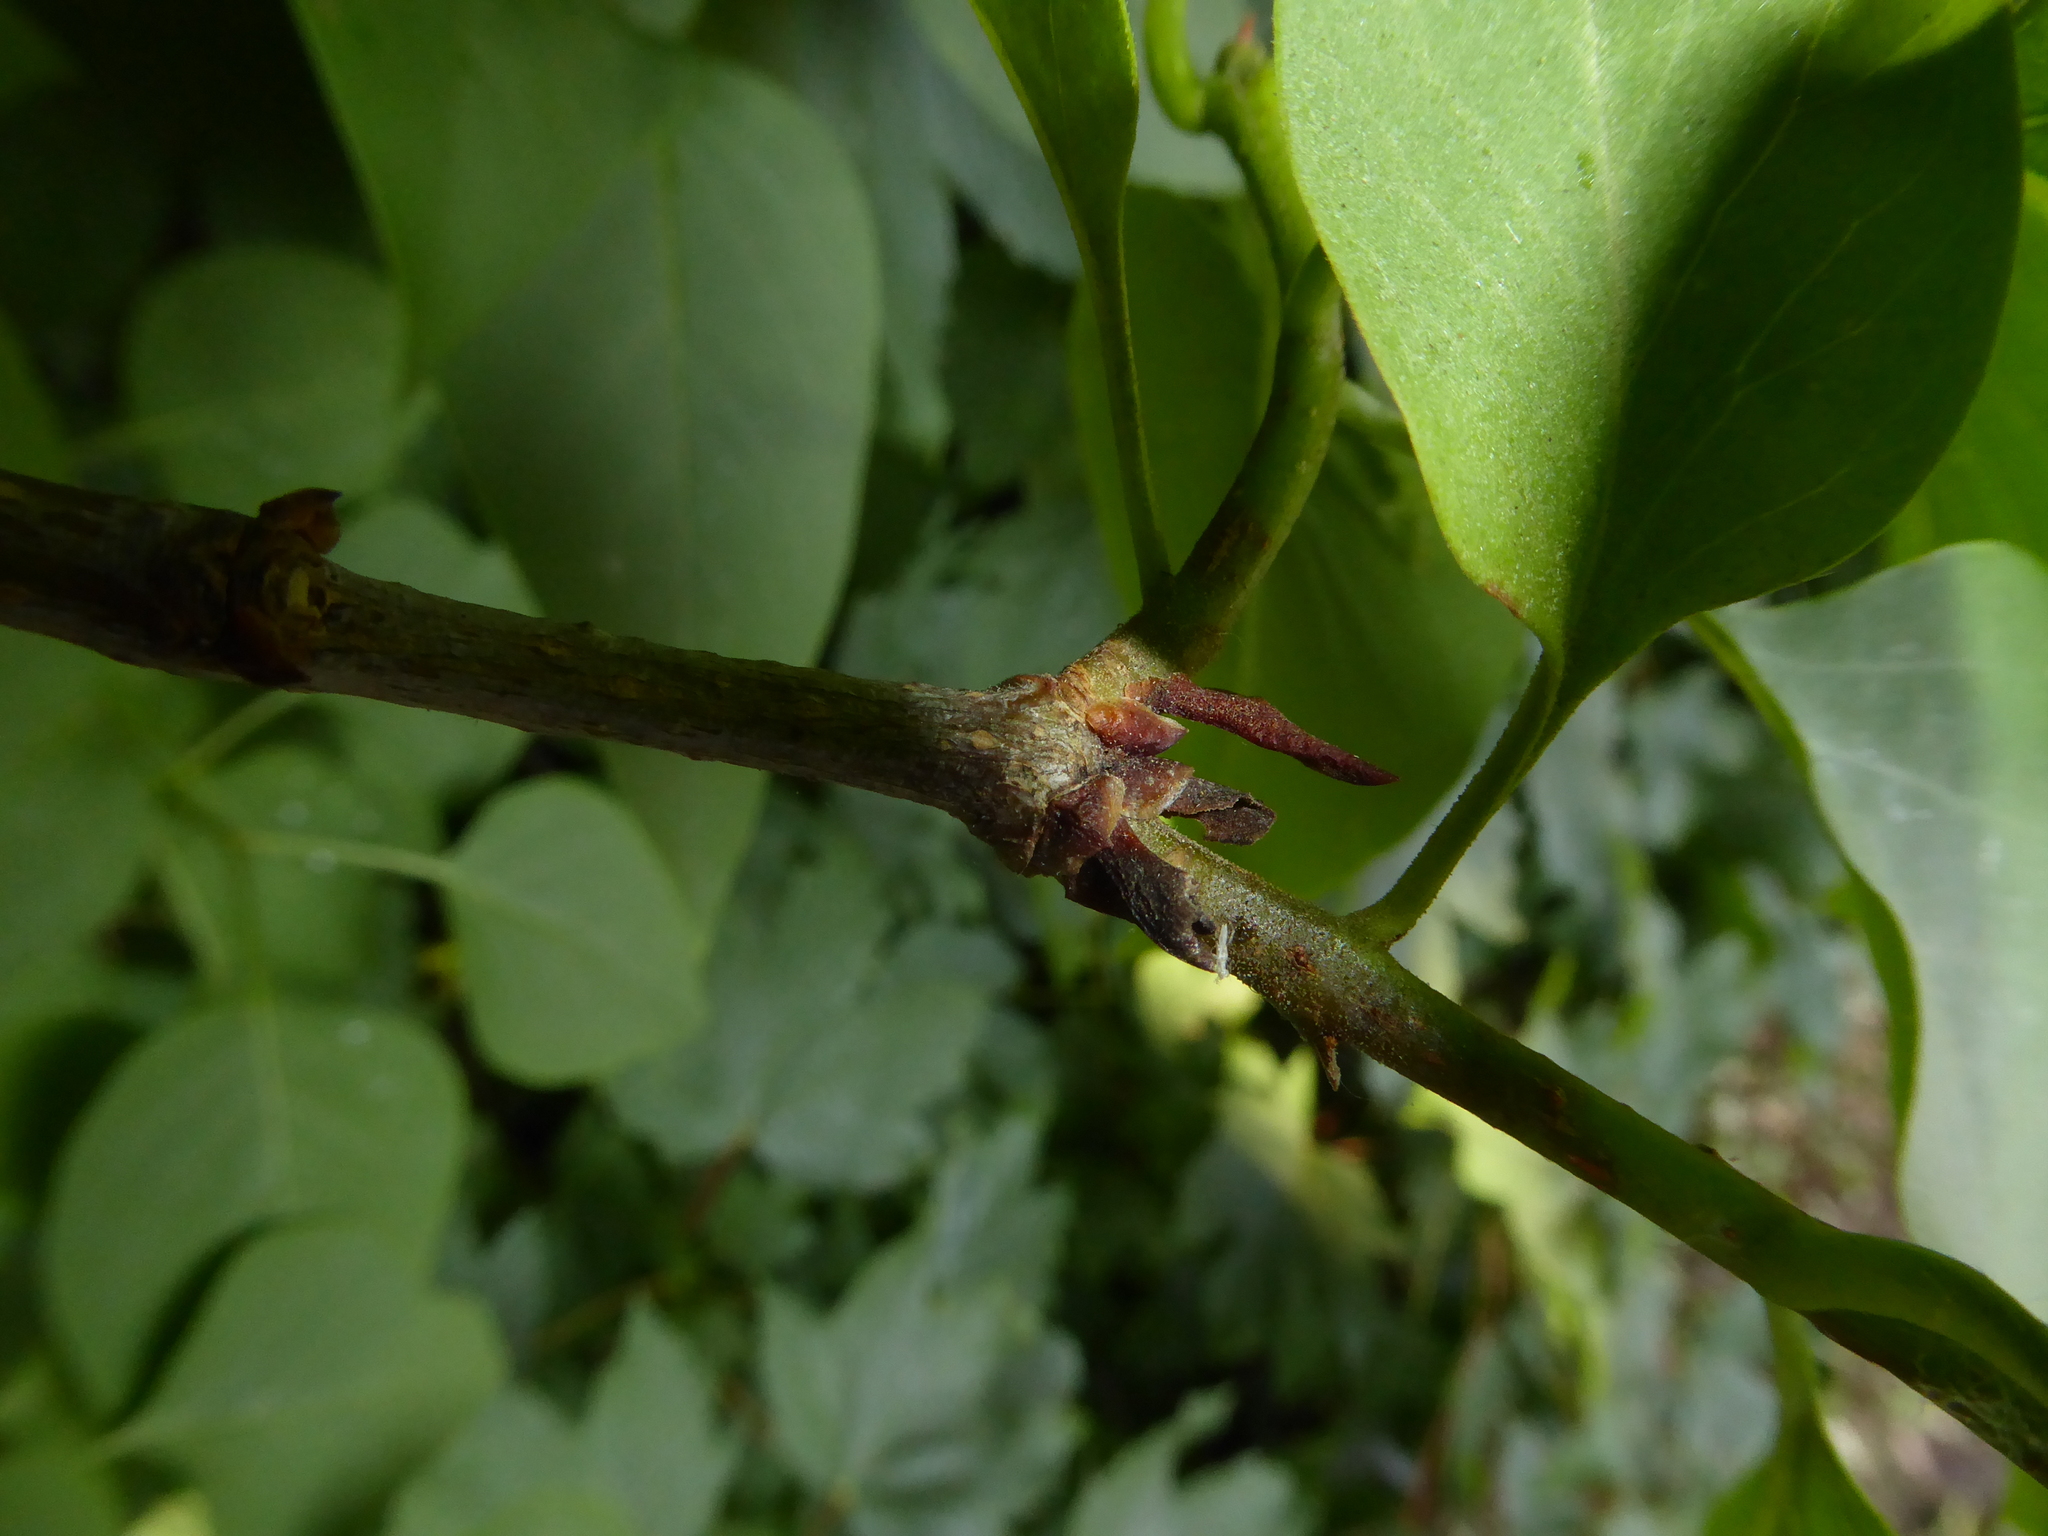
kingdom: Plantae
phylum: Tracheophyta
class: Magnoliopsida
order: Lamiales
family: Oleaceae
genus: Syringa
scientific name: Syringa vulgaris
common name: Common lilac
